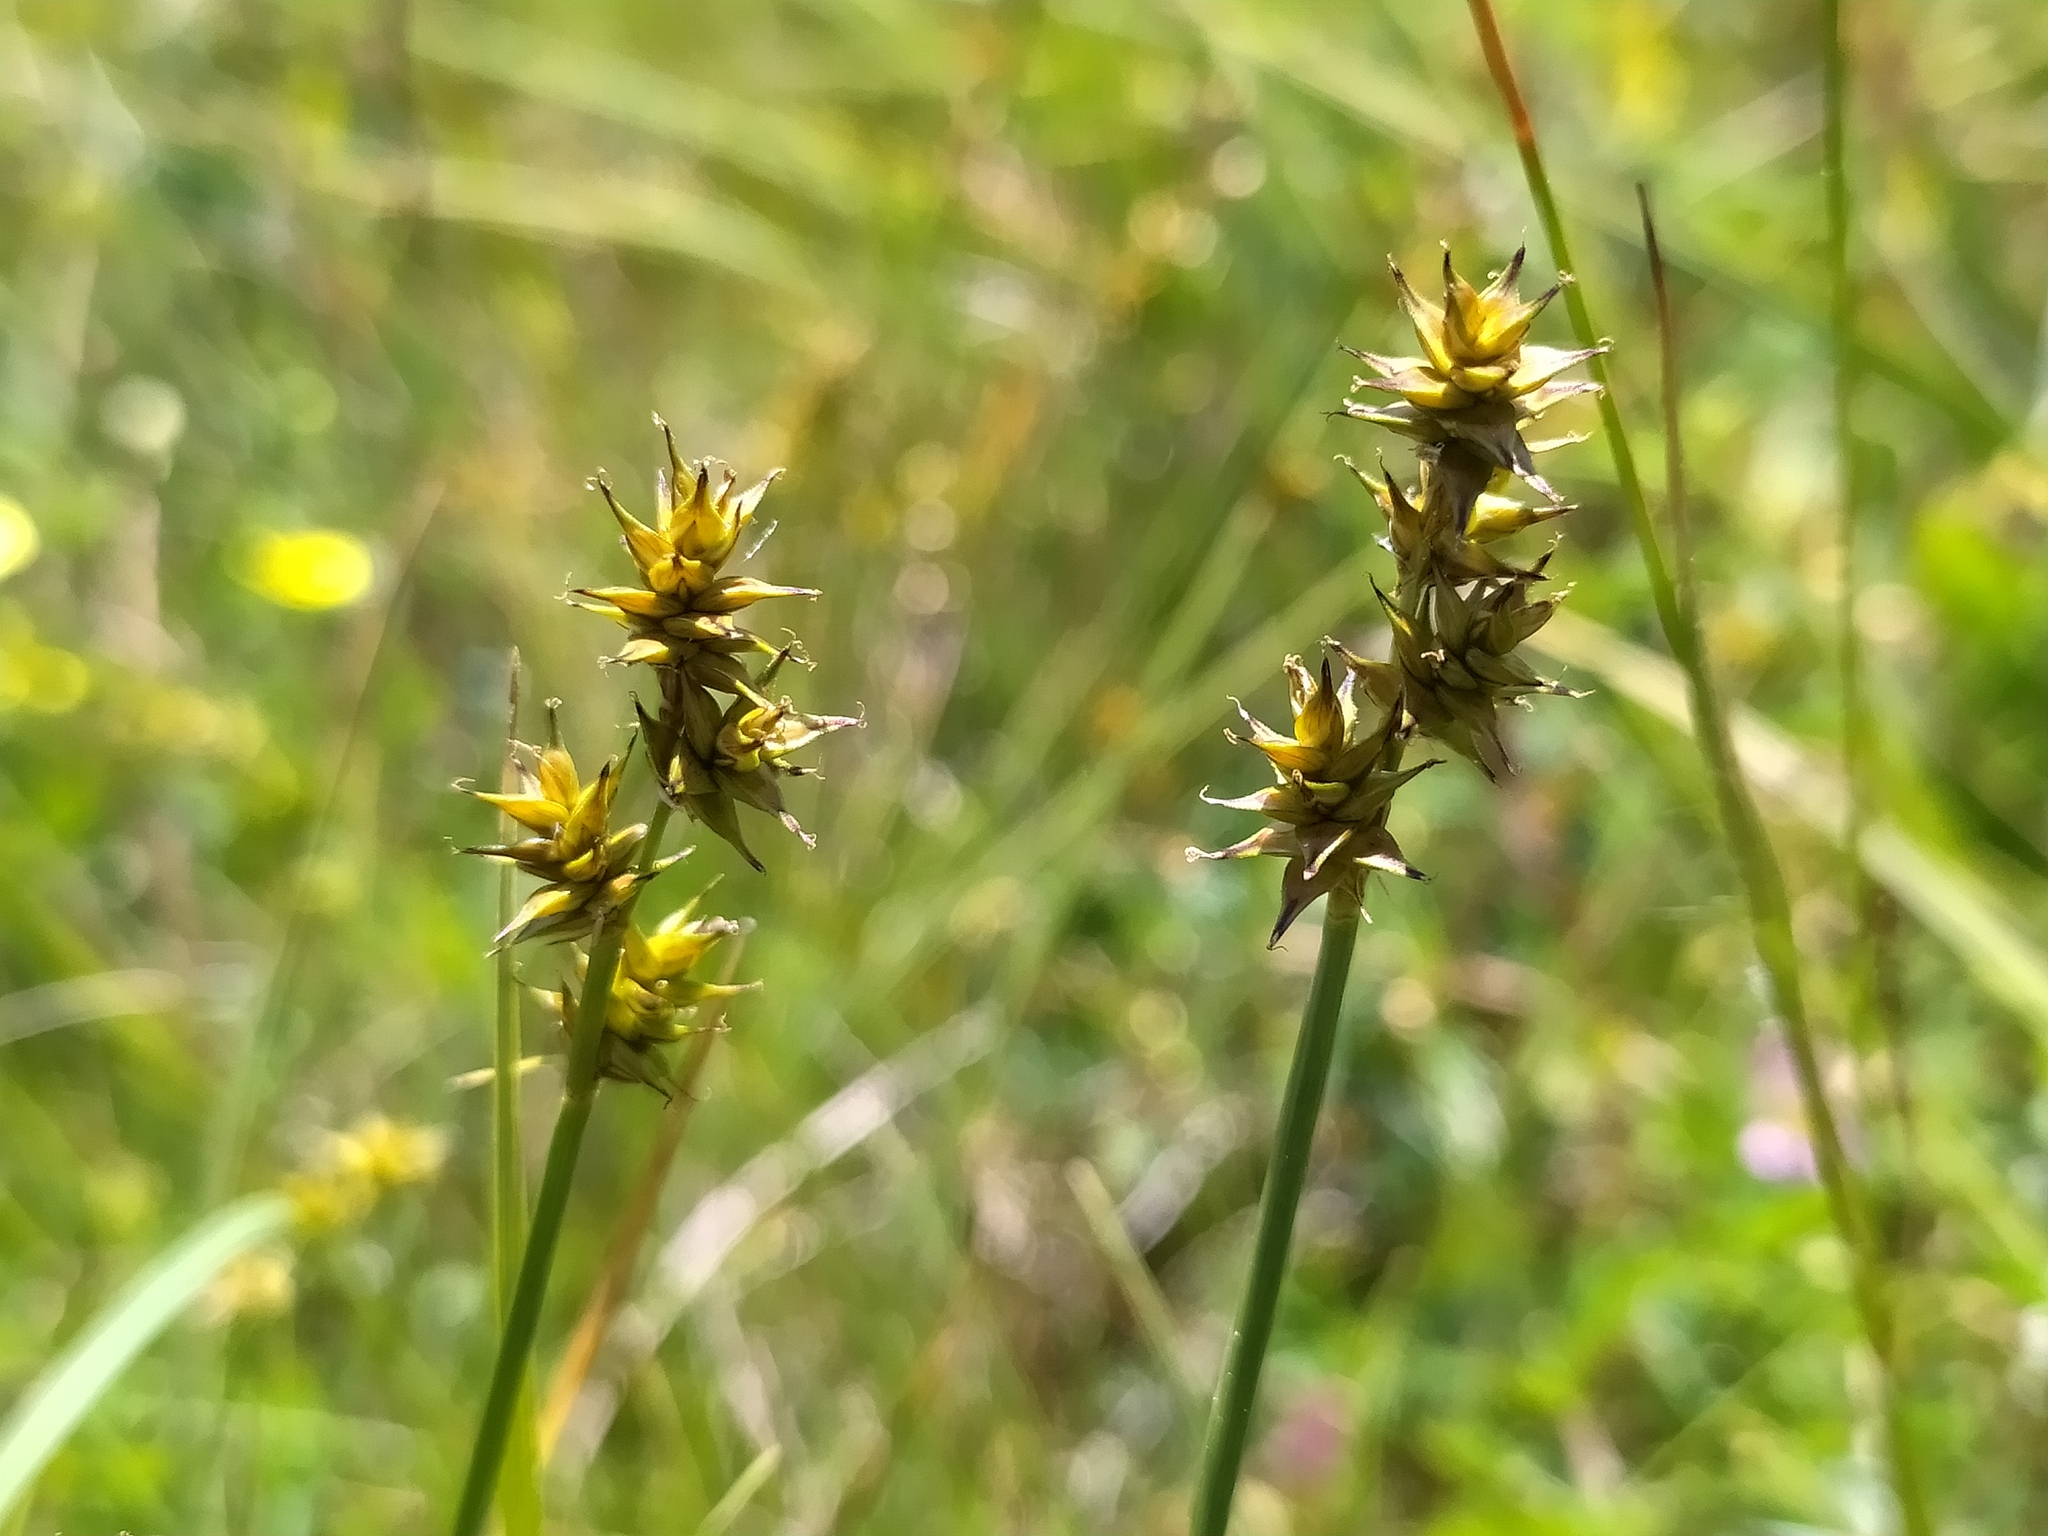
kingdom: Plantae
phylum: Tracheophyta
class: Liliopsida
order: Poales
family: Cyperaceae
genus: Carex
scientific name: Carex echinata
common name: Star sedge
